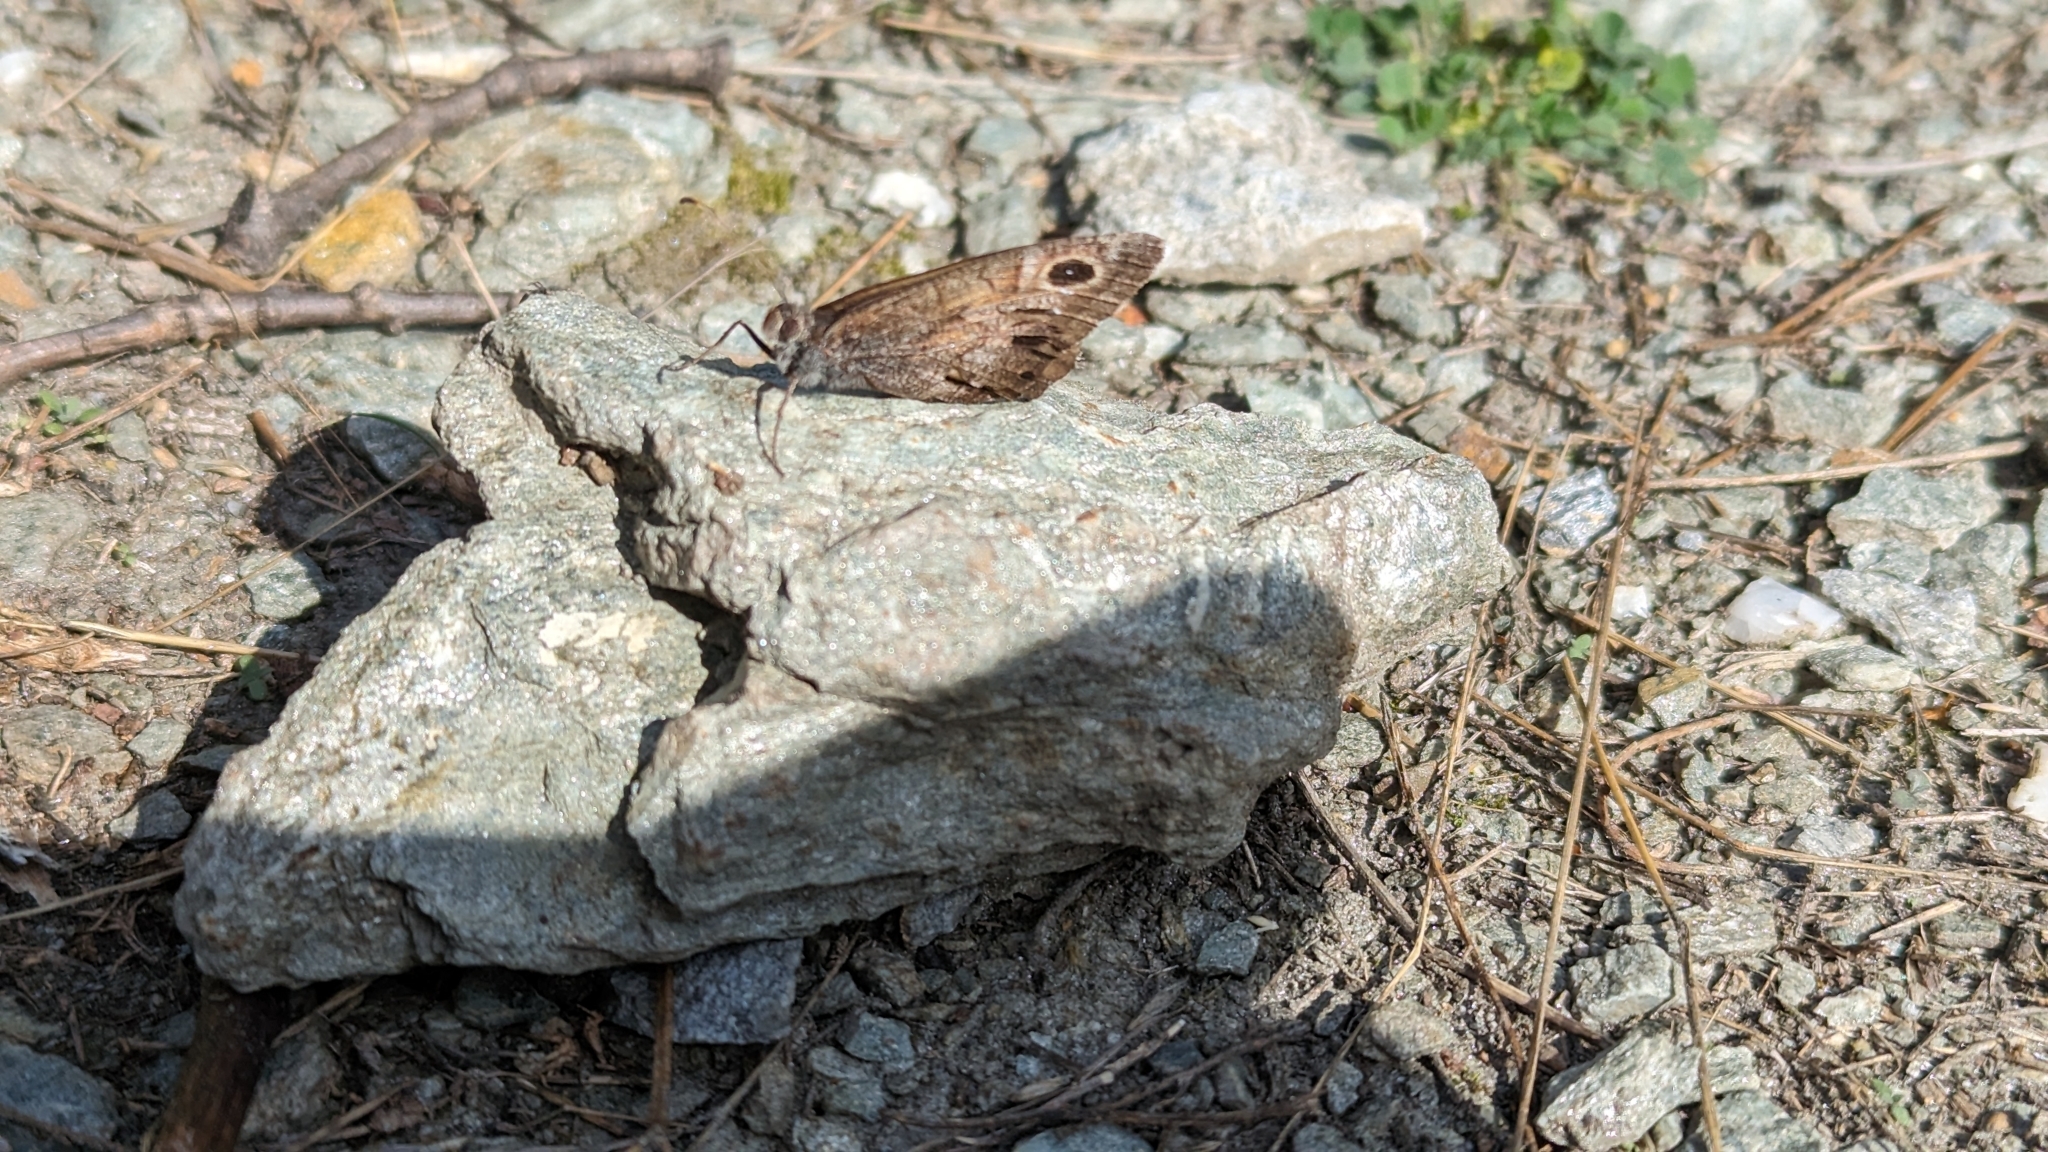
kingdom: Animalia
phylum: Arthropoda
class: Insecta
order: Lepidoptera
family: Nymphalidae
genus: Hipparchia
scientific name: Hipparchia statilinus
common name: Tree grayling
